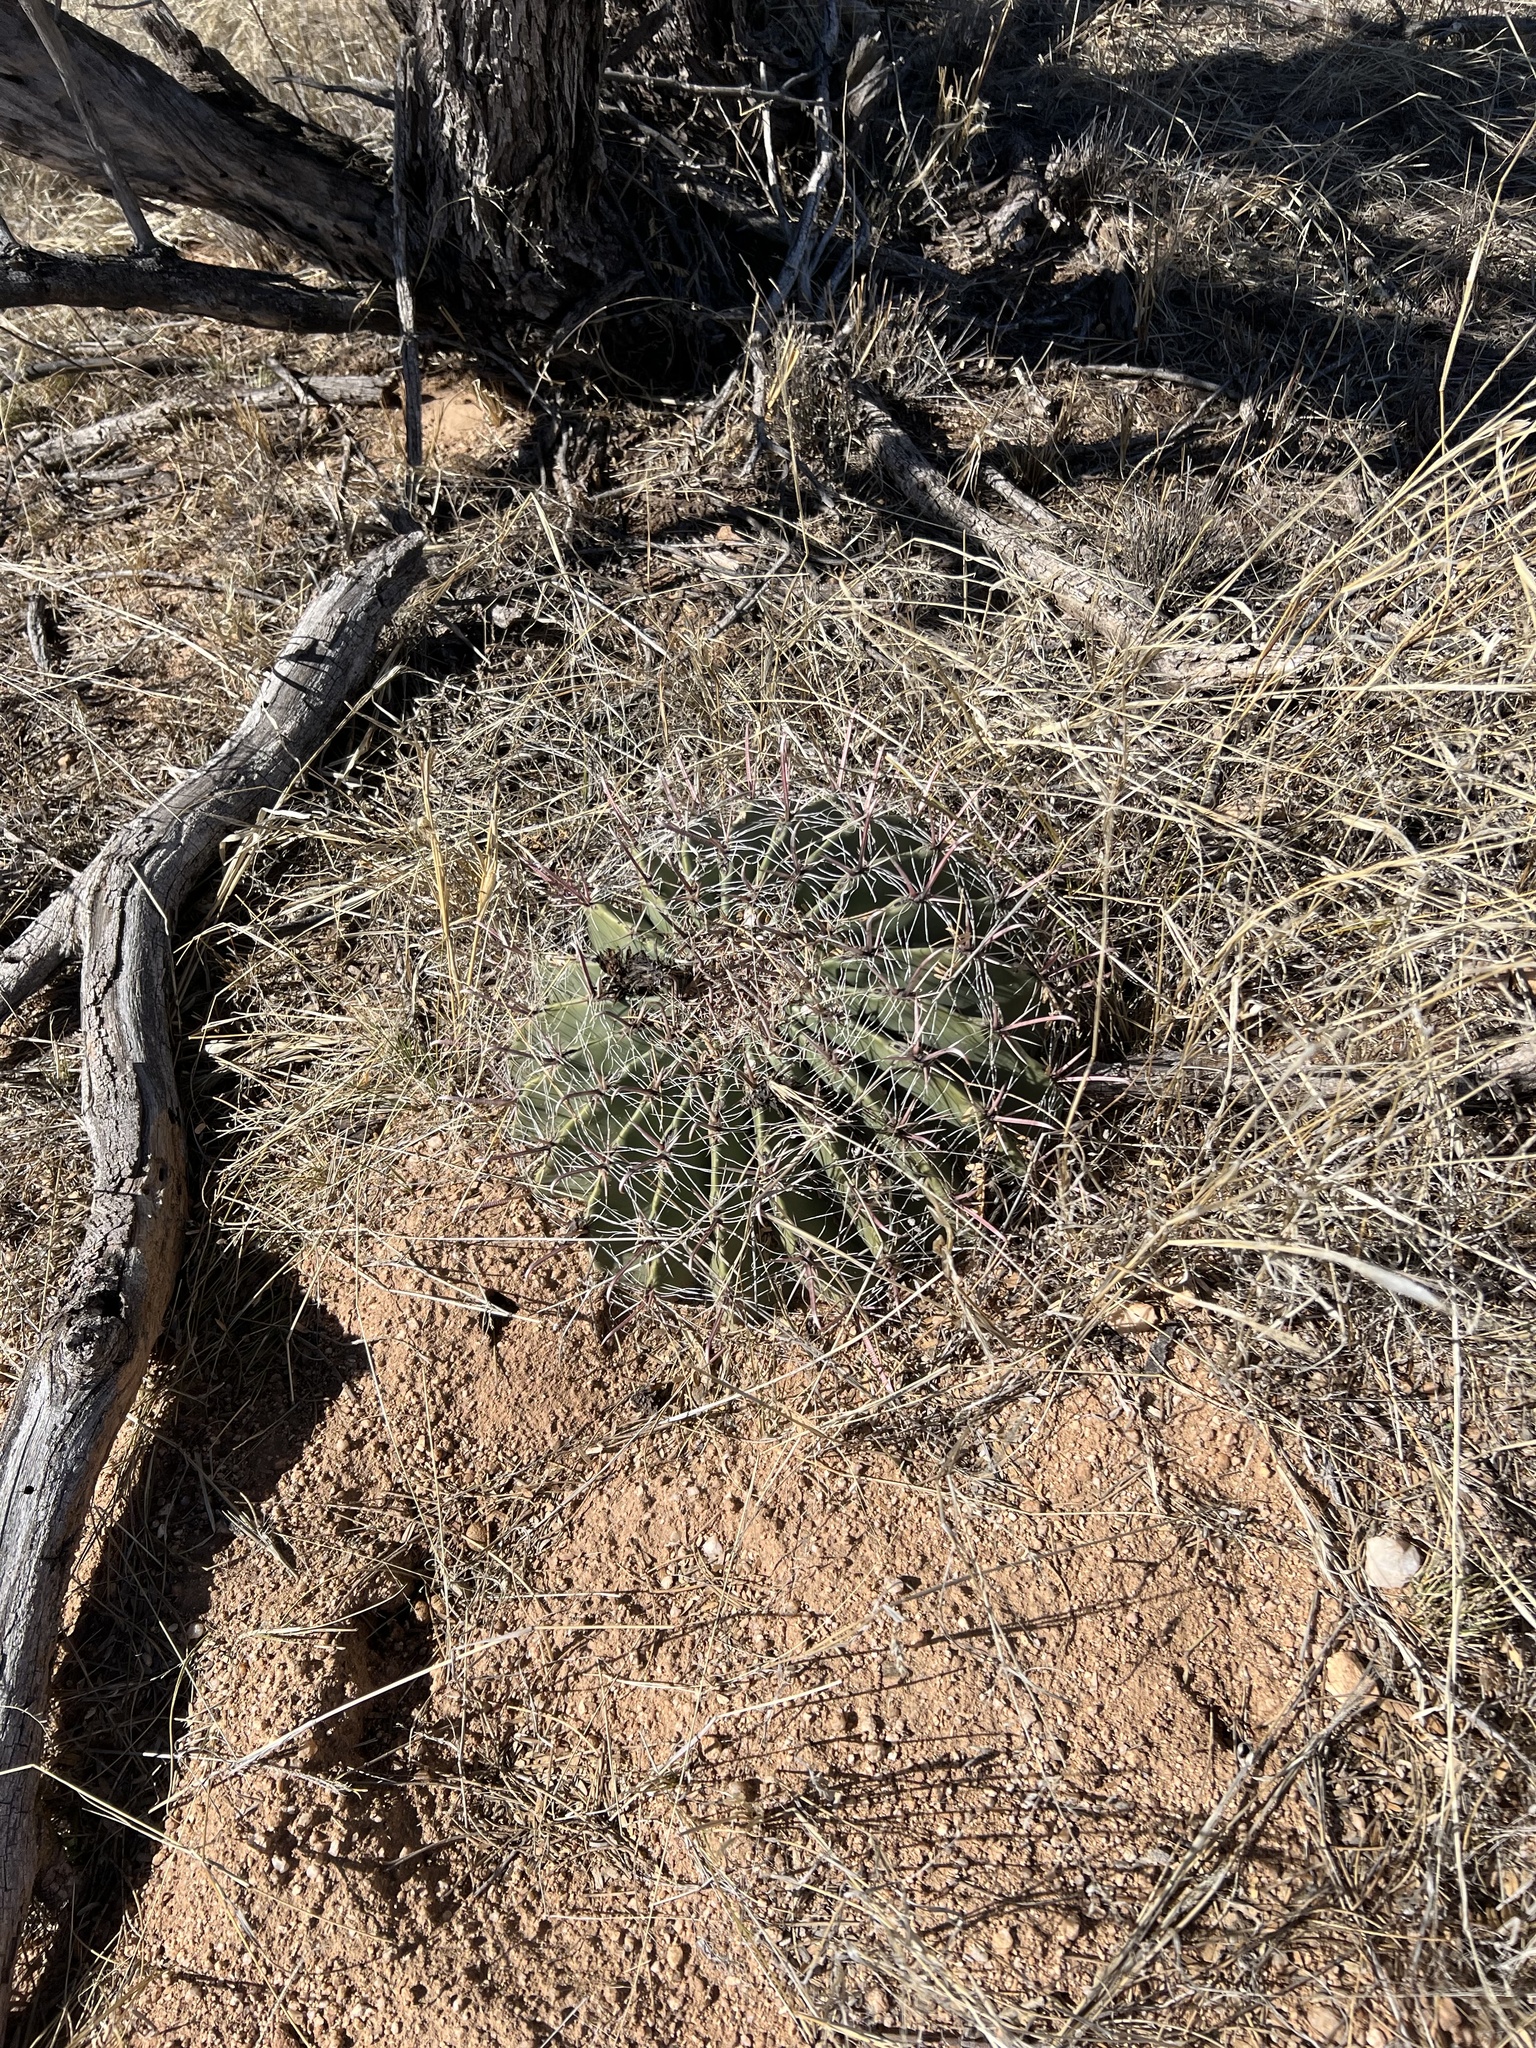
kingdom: Plantae
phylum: Tracheophyta
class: Magnoliopsida
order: Caryophyllales
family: Cactaceae
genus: Ferocactus
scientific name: Ferocactus wislizeni
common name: Candy barrel cactus
